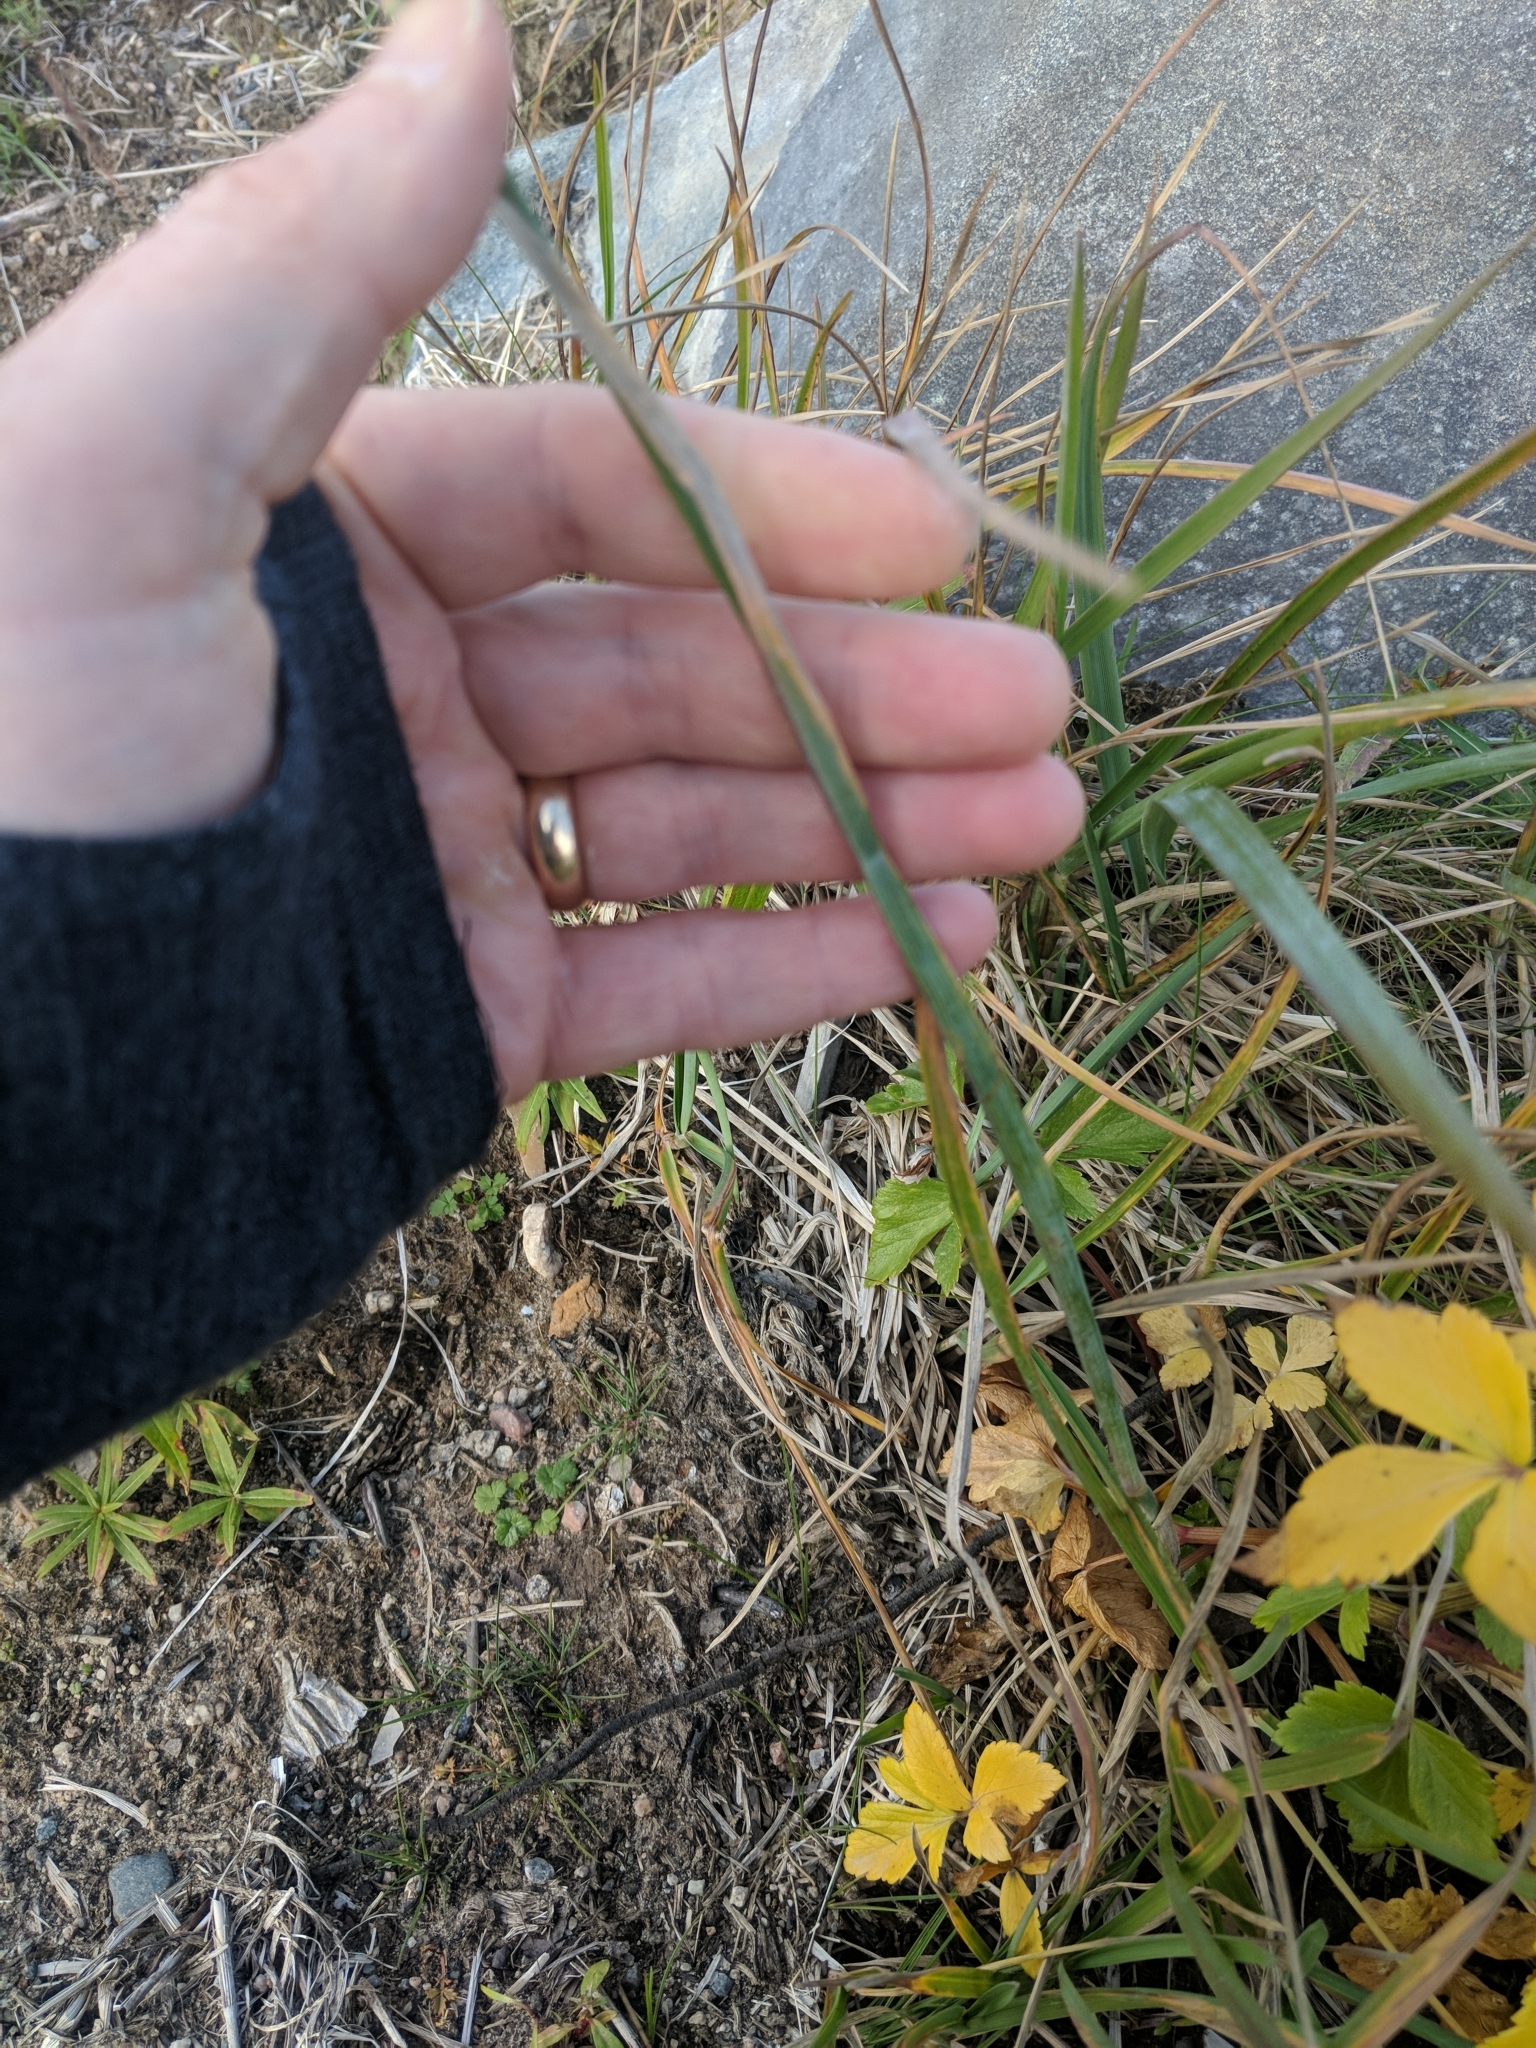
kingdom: Plantae
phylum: Tracheophyta
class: Liliopsida
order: Poales
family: Poaceae
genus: Arctopoa
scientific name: Arctopoa eminens
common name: Eminent bluegrass
